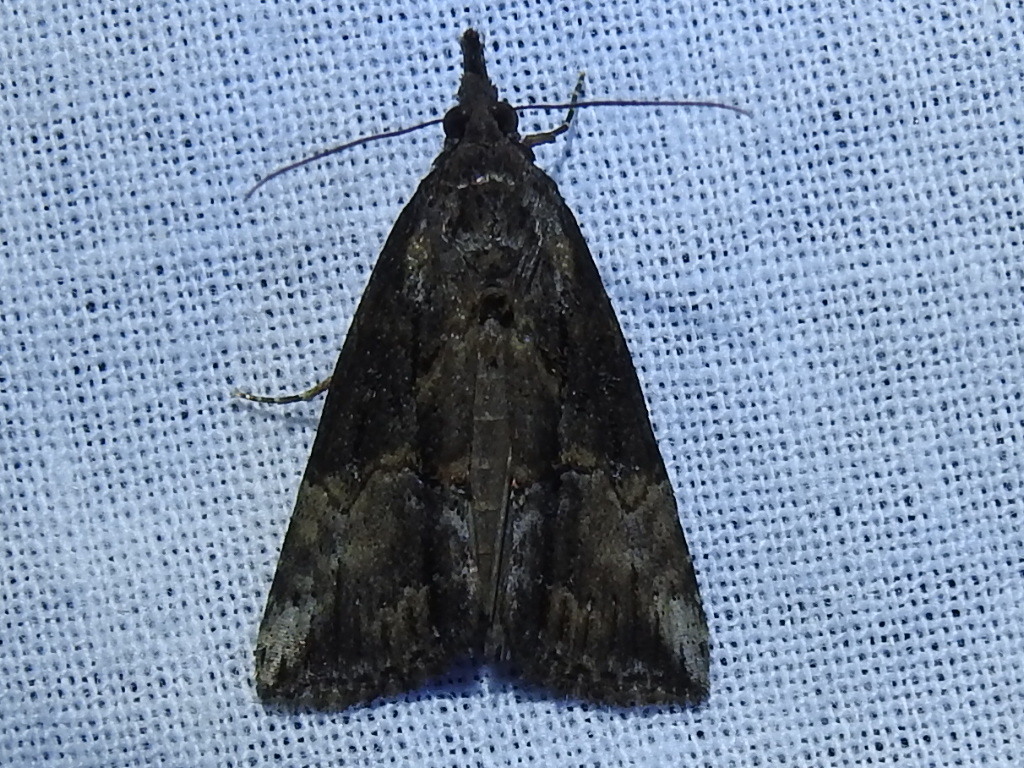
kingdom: Animalia
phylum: Arthropoda
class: Insecta
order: Lepidoptera
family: Erebidae
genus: Hypena
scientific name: Hypena scabra
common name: Green cloverworm
